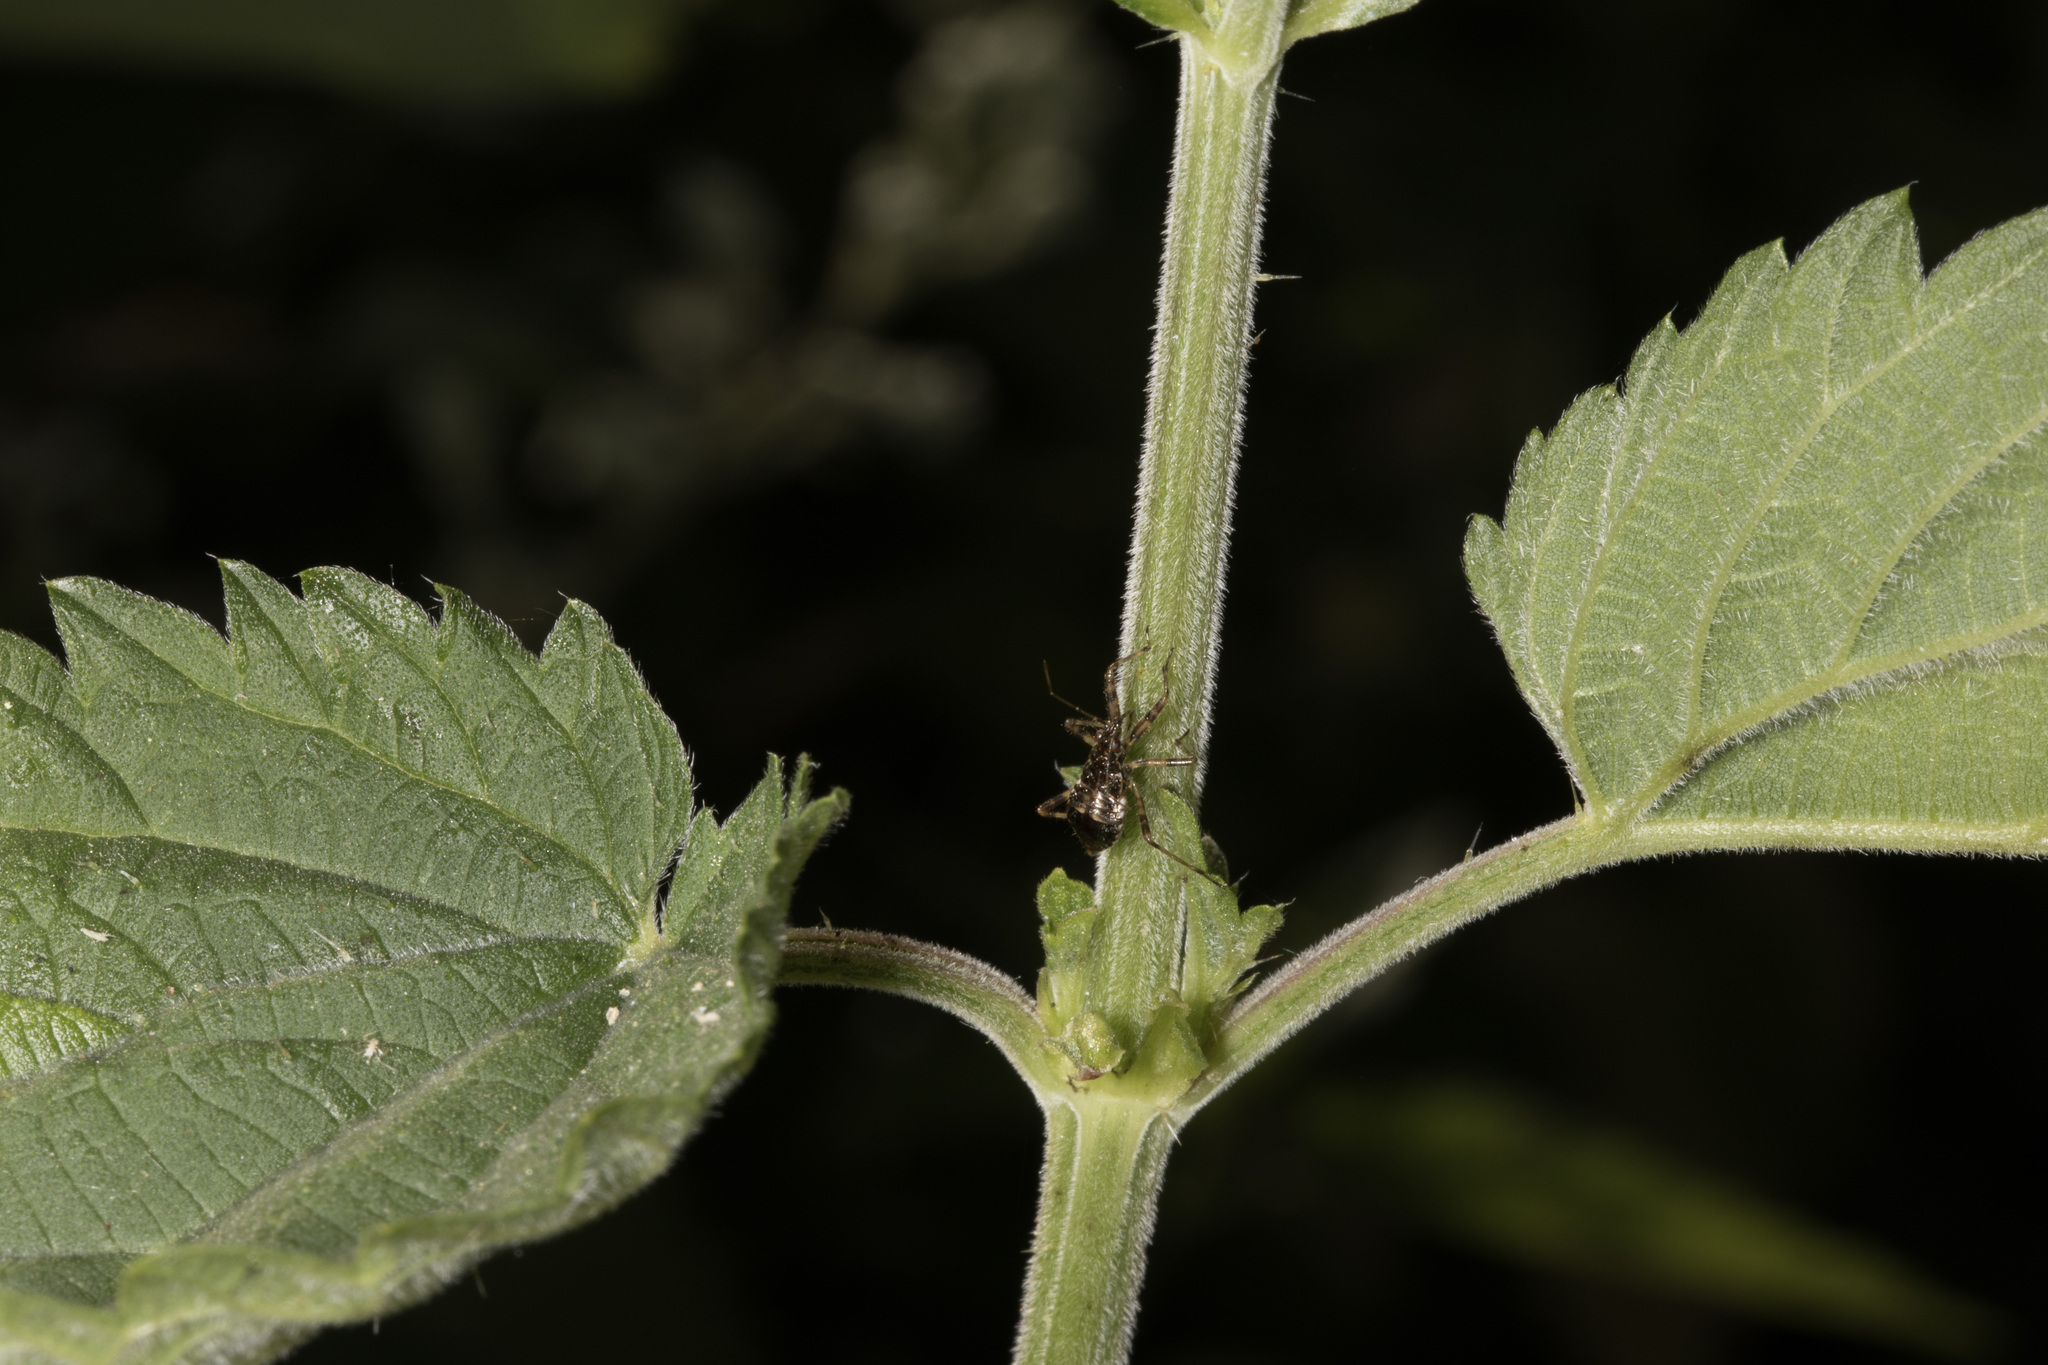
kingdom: Animalia
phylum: Arthropoda
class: Insecta
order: Hemiptera
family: Nabidae
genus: Himacerus
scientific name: Himacerus apterus
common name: Tree damsel bug
